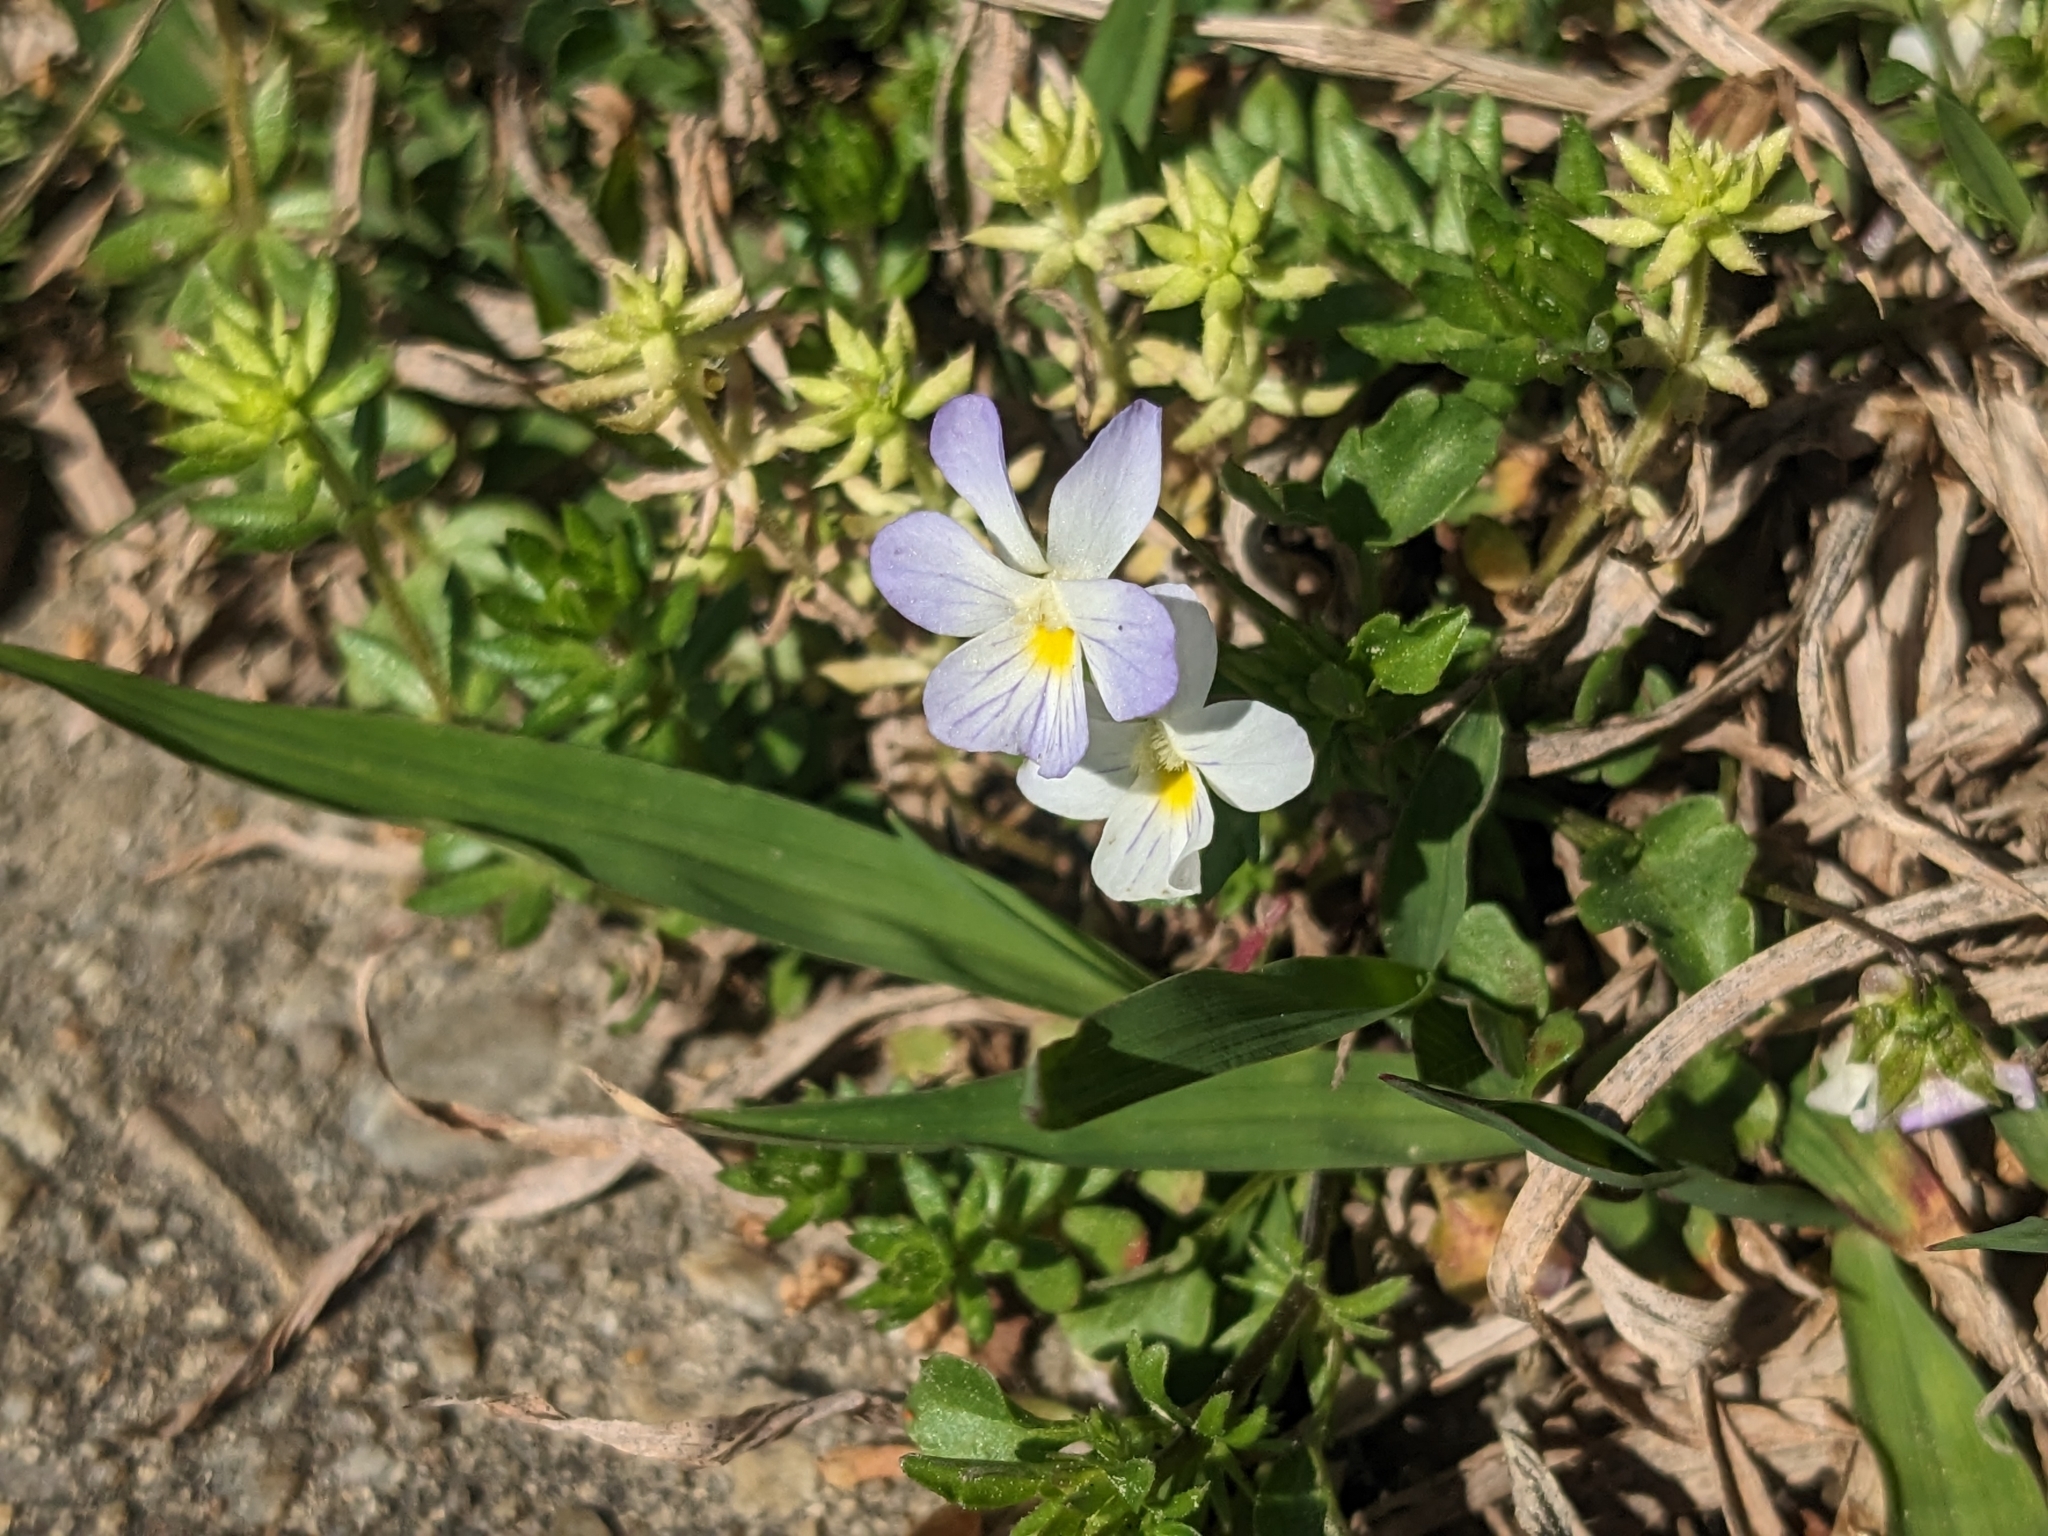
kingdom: Plantae
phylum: Tracheophyta
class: Magnoliopsida
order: Malpighiales
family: Violaceae
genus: Viola
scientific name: Viola rafinesquei
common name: American field pansy
